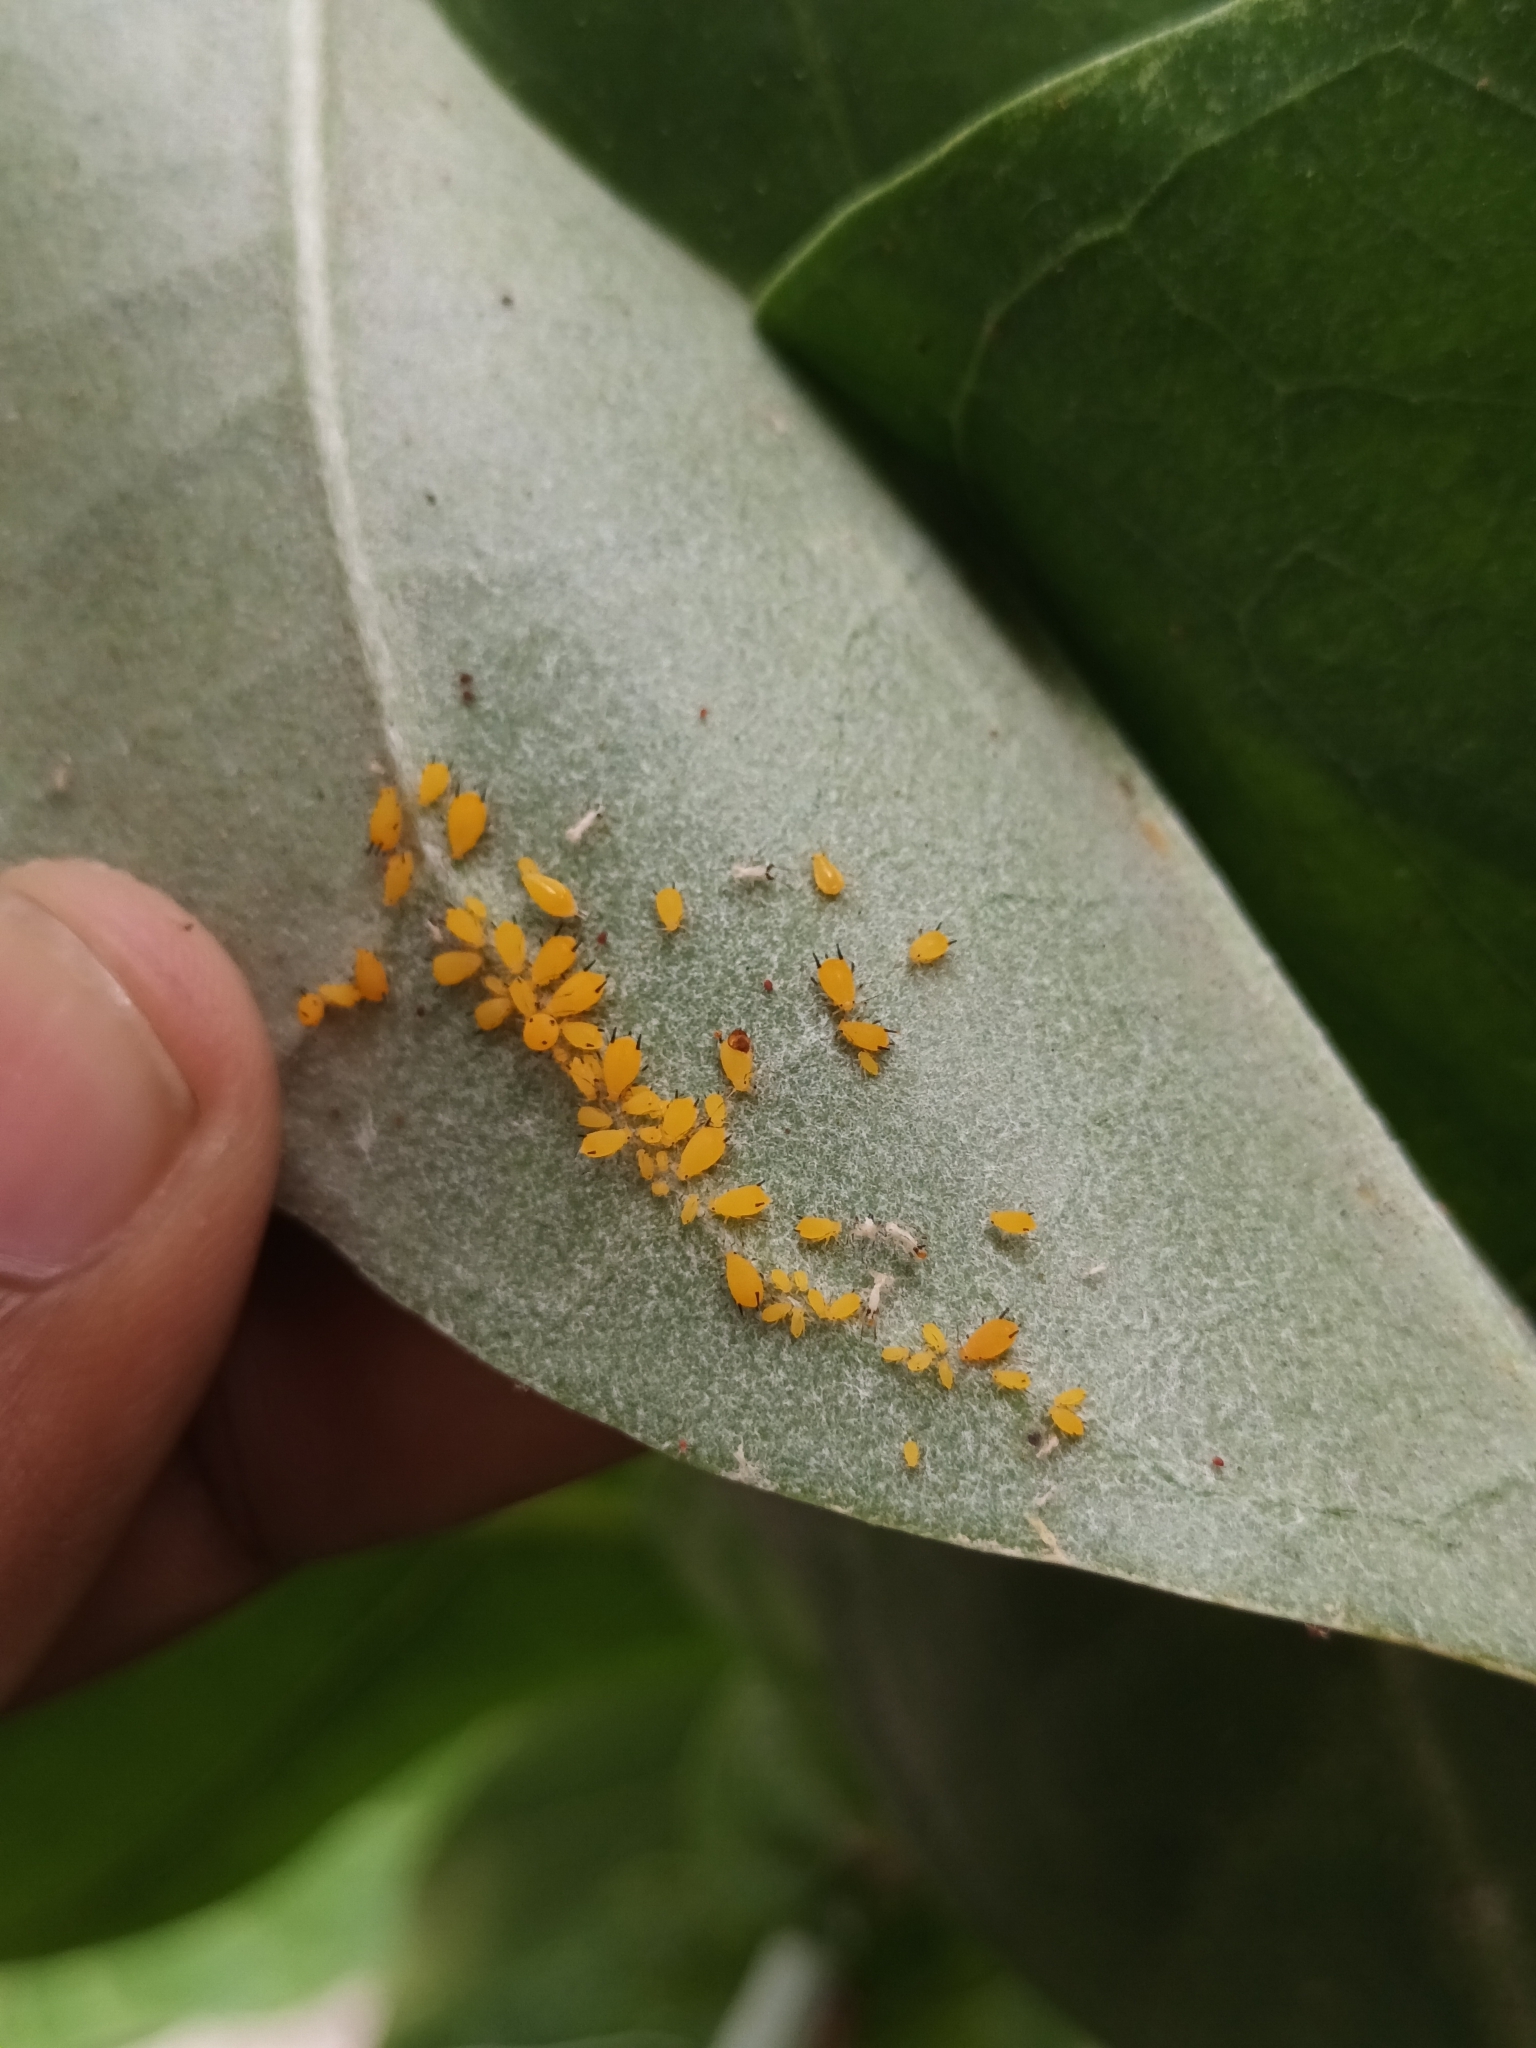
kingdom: Animalia
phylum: Arthropoda
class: Insecta
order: Hemiptera
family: Aphididae
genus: Aphis
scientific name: Aphis nerii
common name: Oleander aphid
